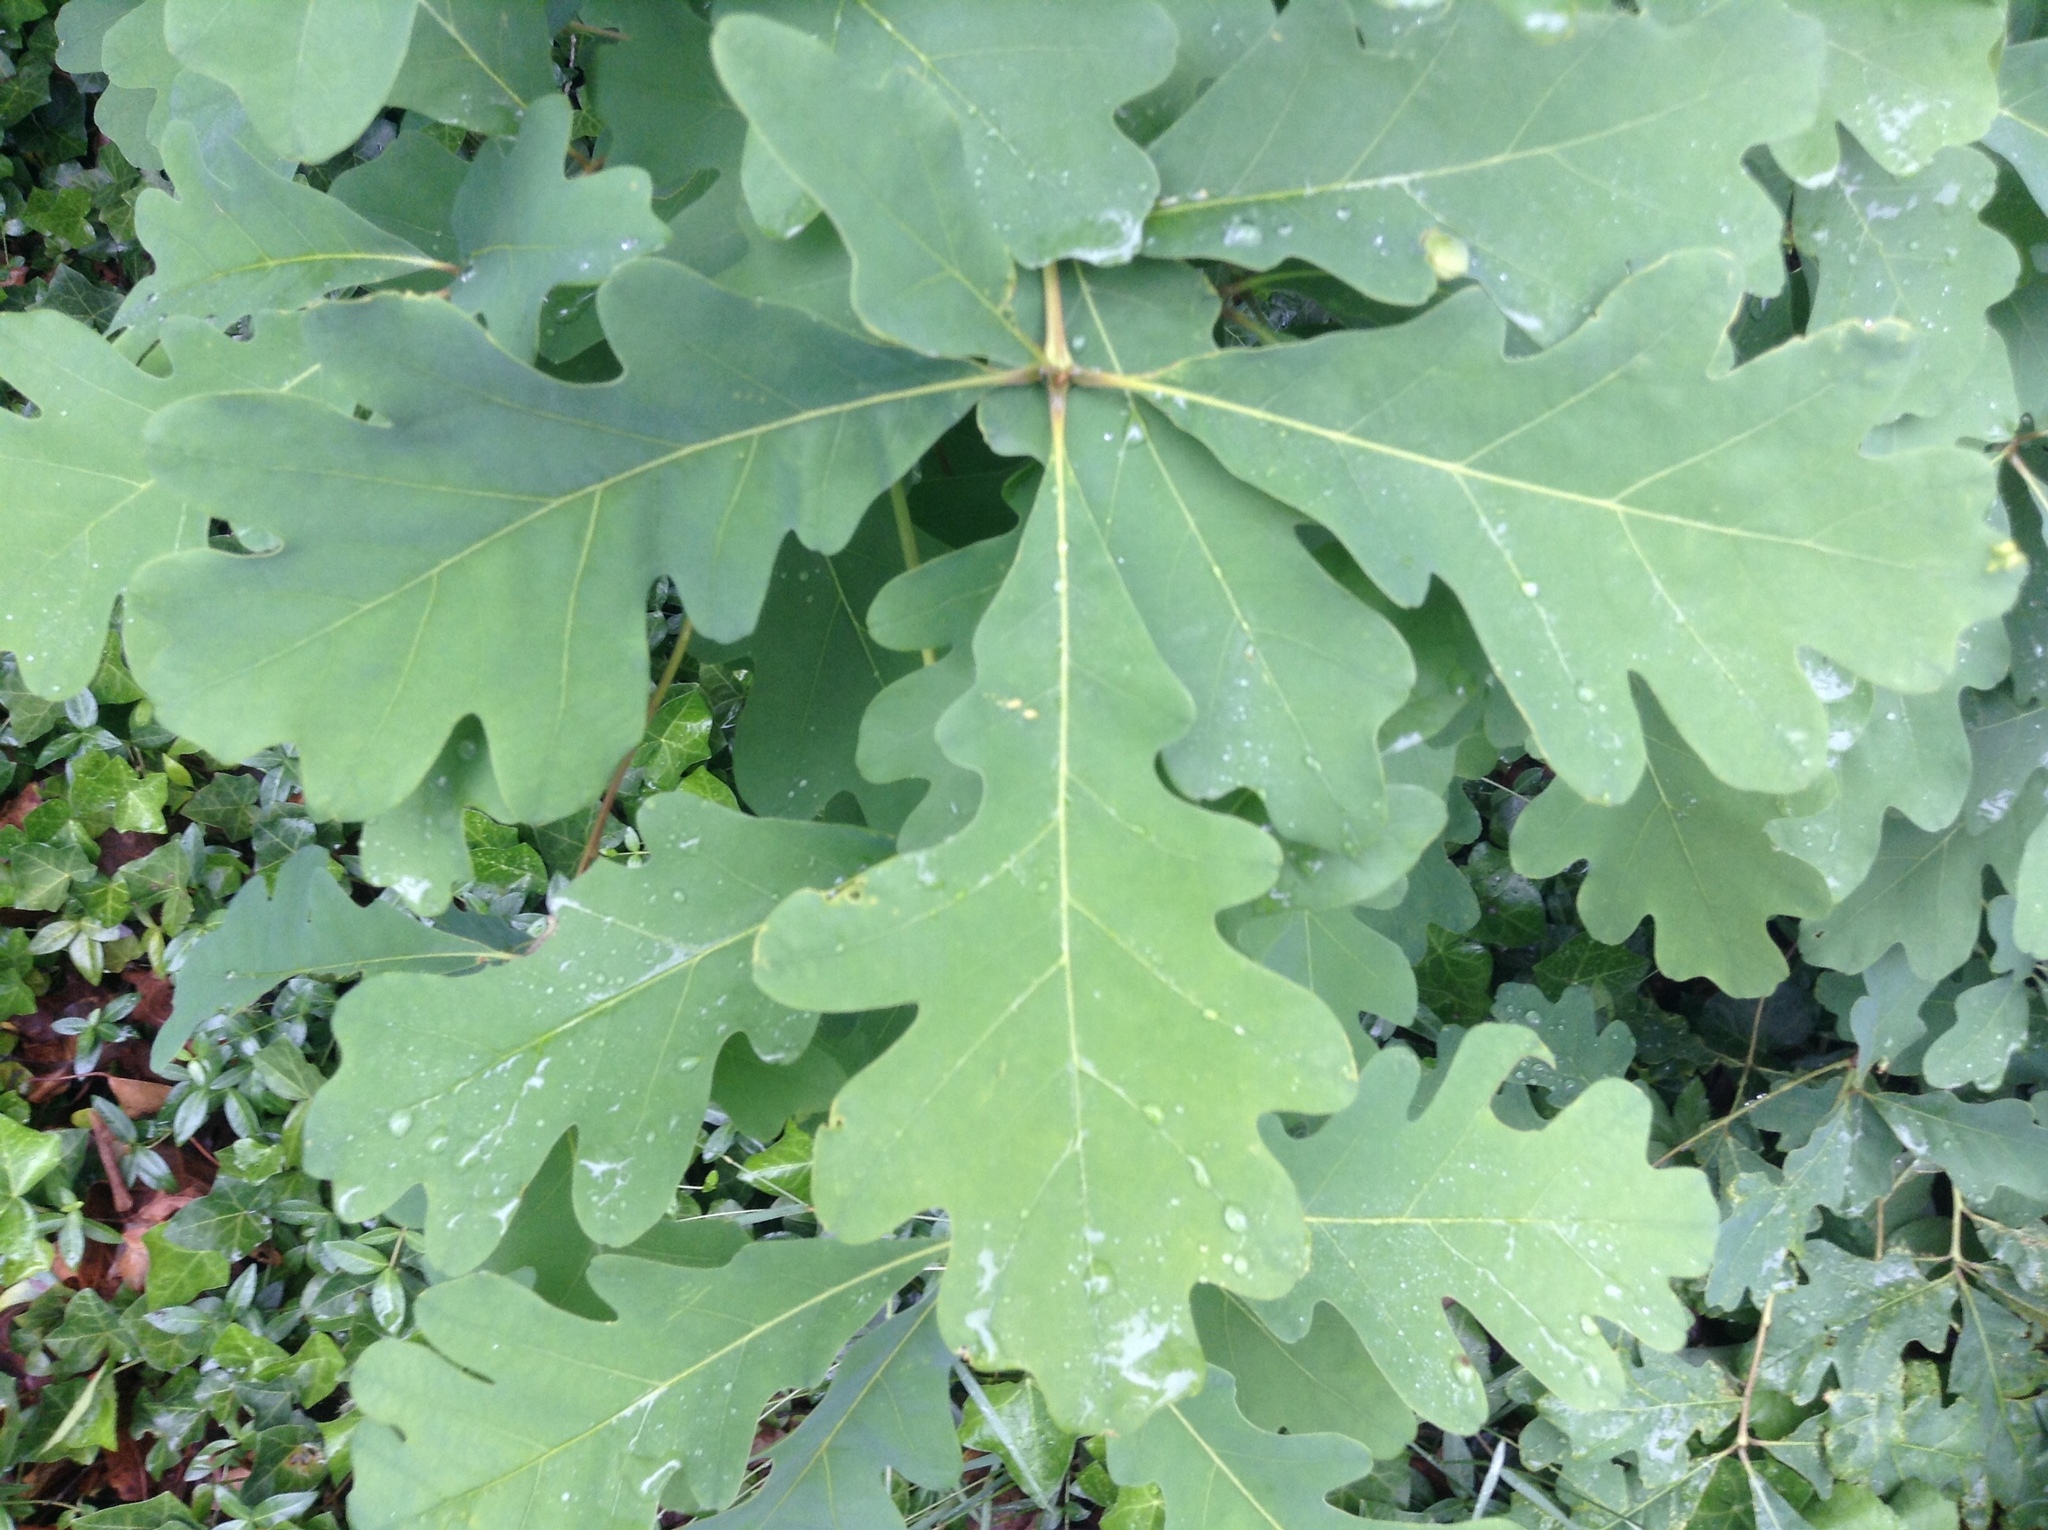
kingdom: Plantae
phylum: Tracheophyta
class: Magnoliopsida
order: Fagales
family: Fagaceae
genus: Quercus
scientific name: Quercus alba
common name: White oak
